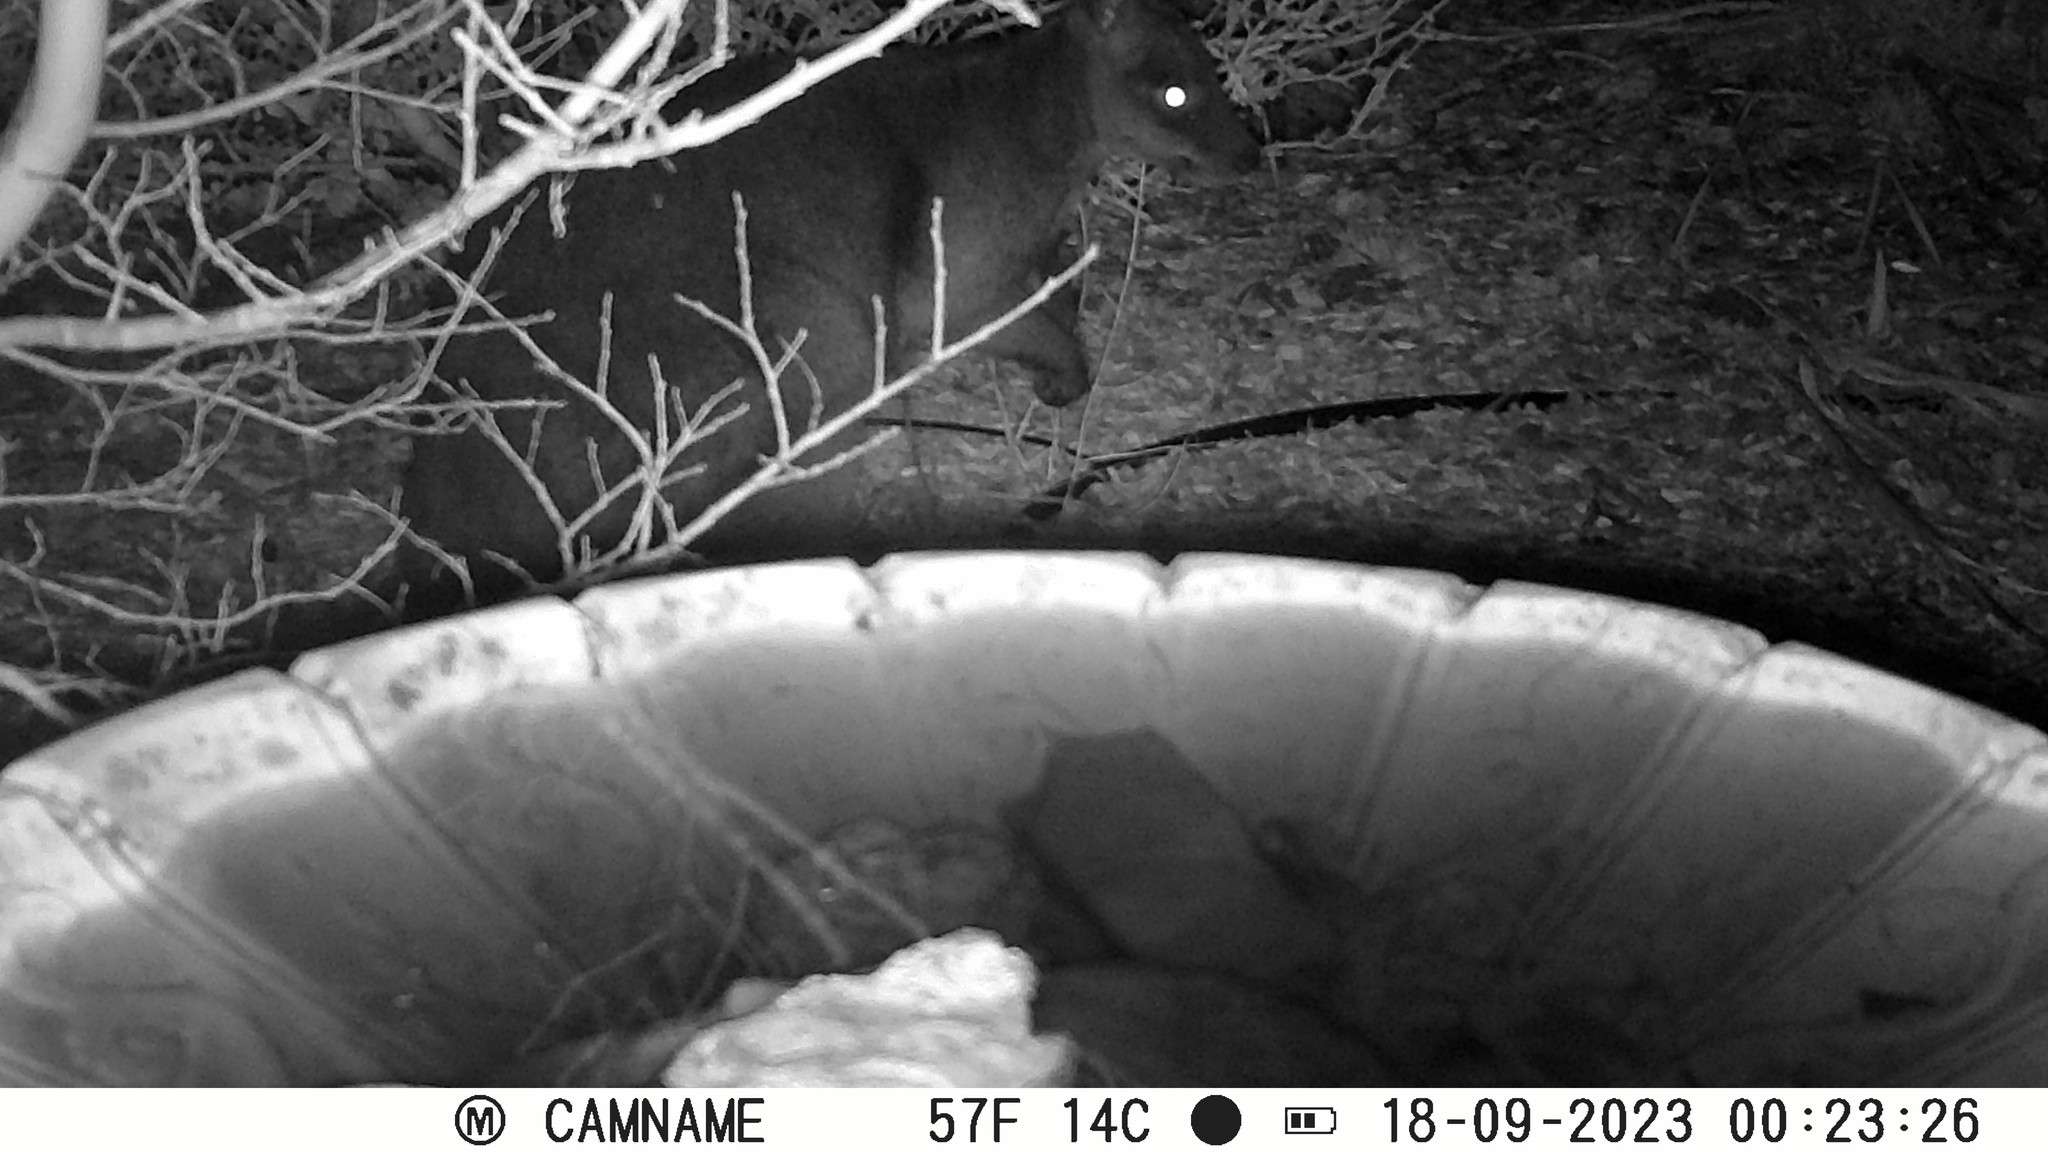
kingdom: Animalia
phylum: Chordata
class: Mammalia
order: Diprotodontia
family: Macropodidae
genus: Wallabia
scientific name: Wallabia bicolor
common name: Swamp wallaby
